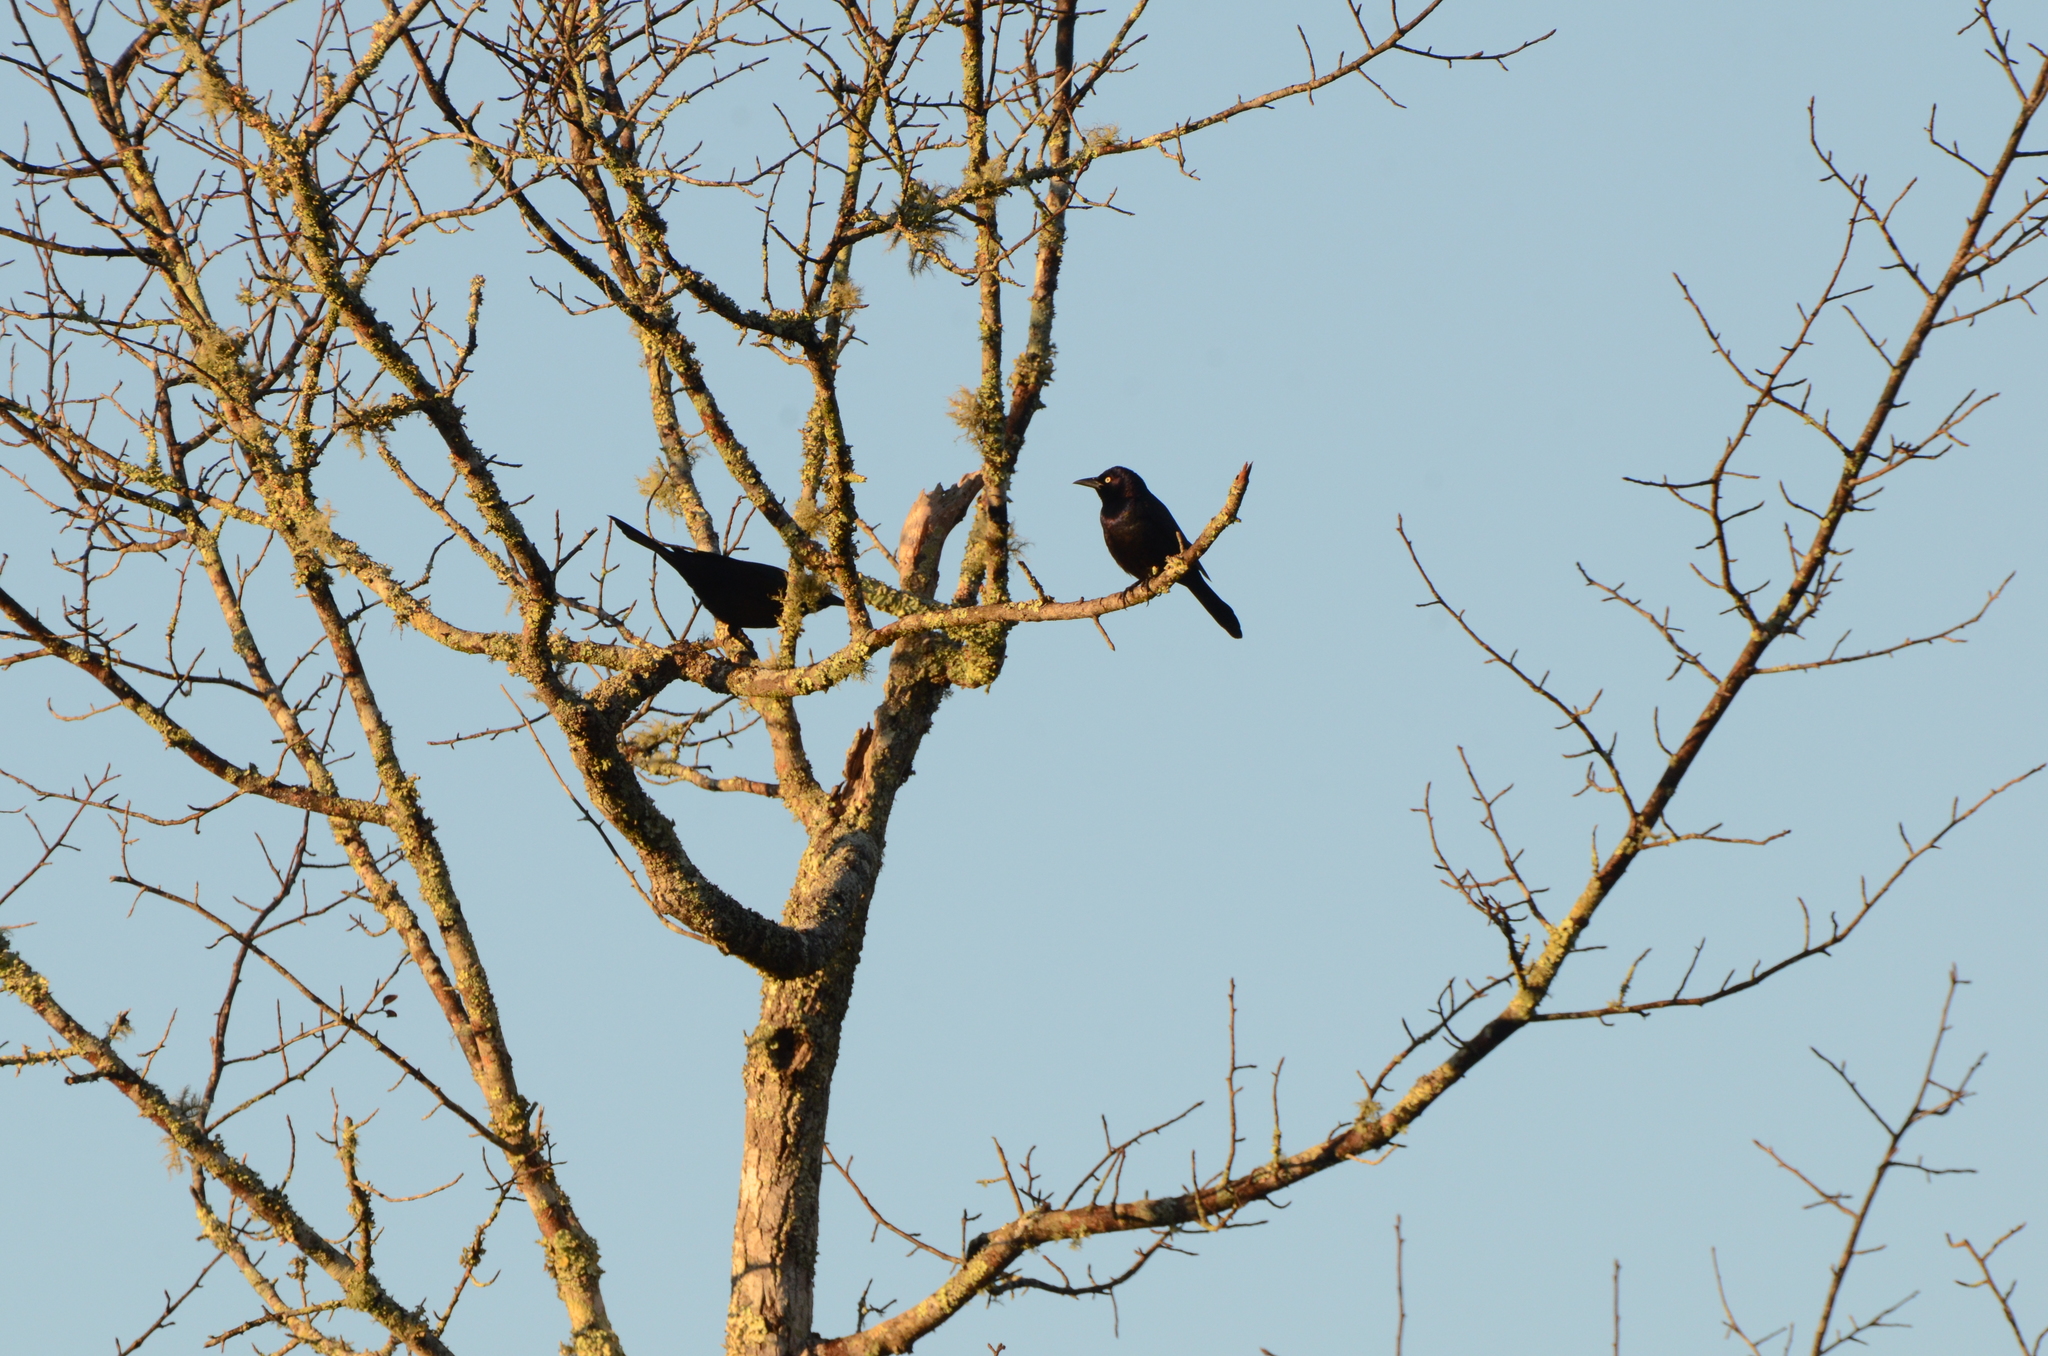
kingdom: Animalia
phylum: Chordata
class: Aves
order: Passeriformes
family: Icteridae
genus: Quiscalus
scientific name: Quiscalus quiscula
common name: Common grackle
